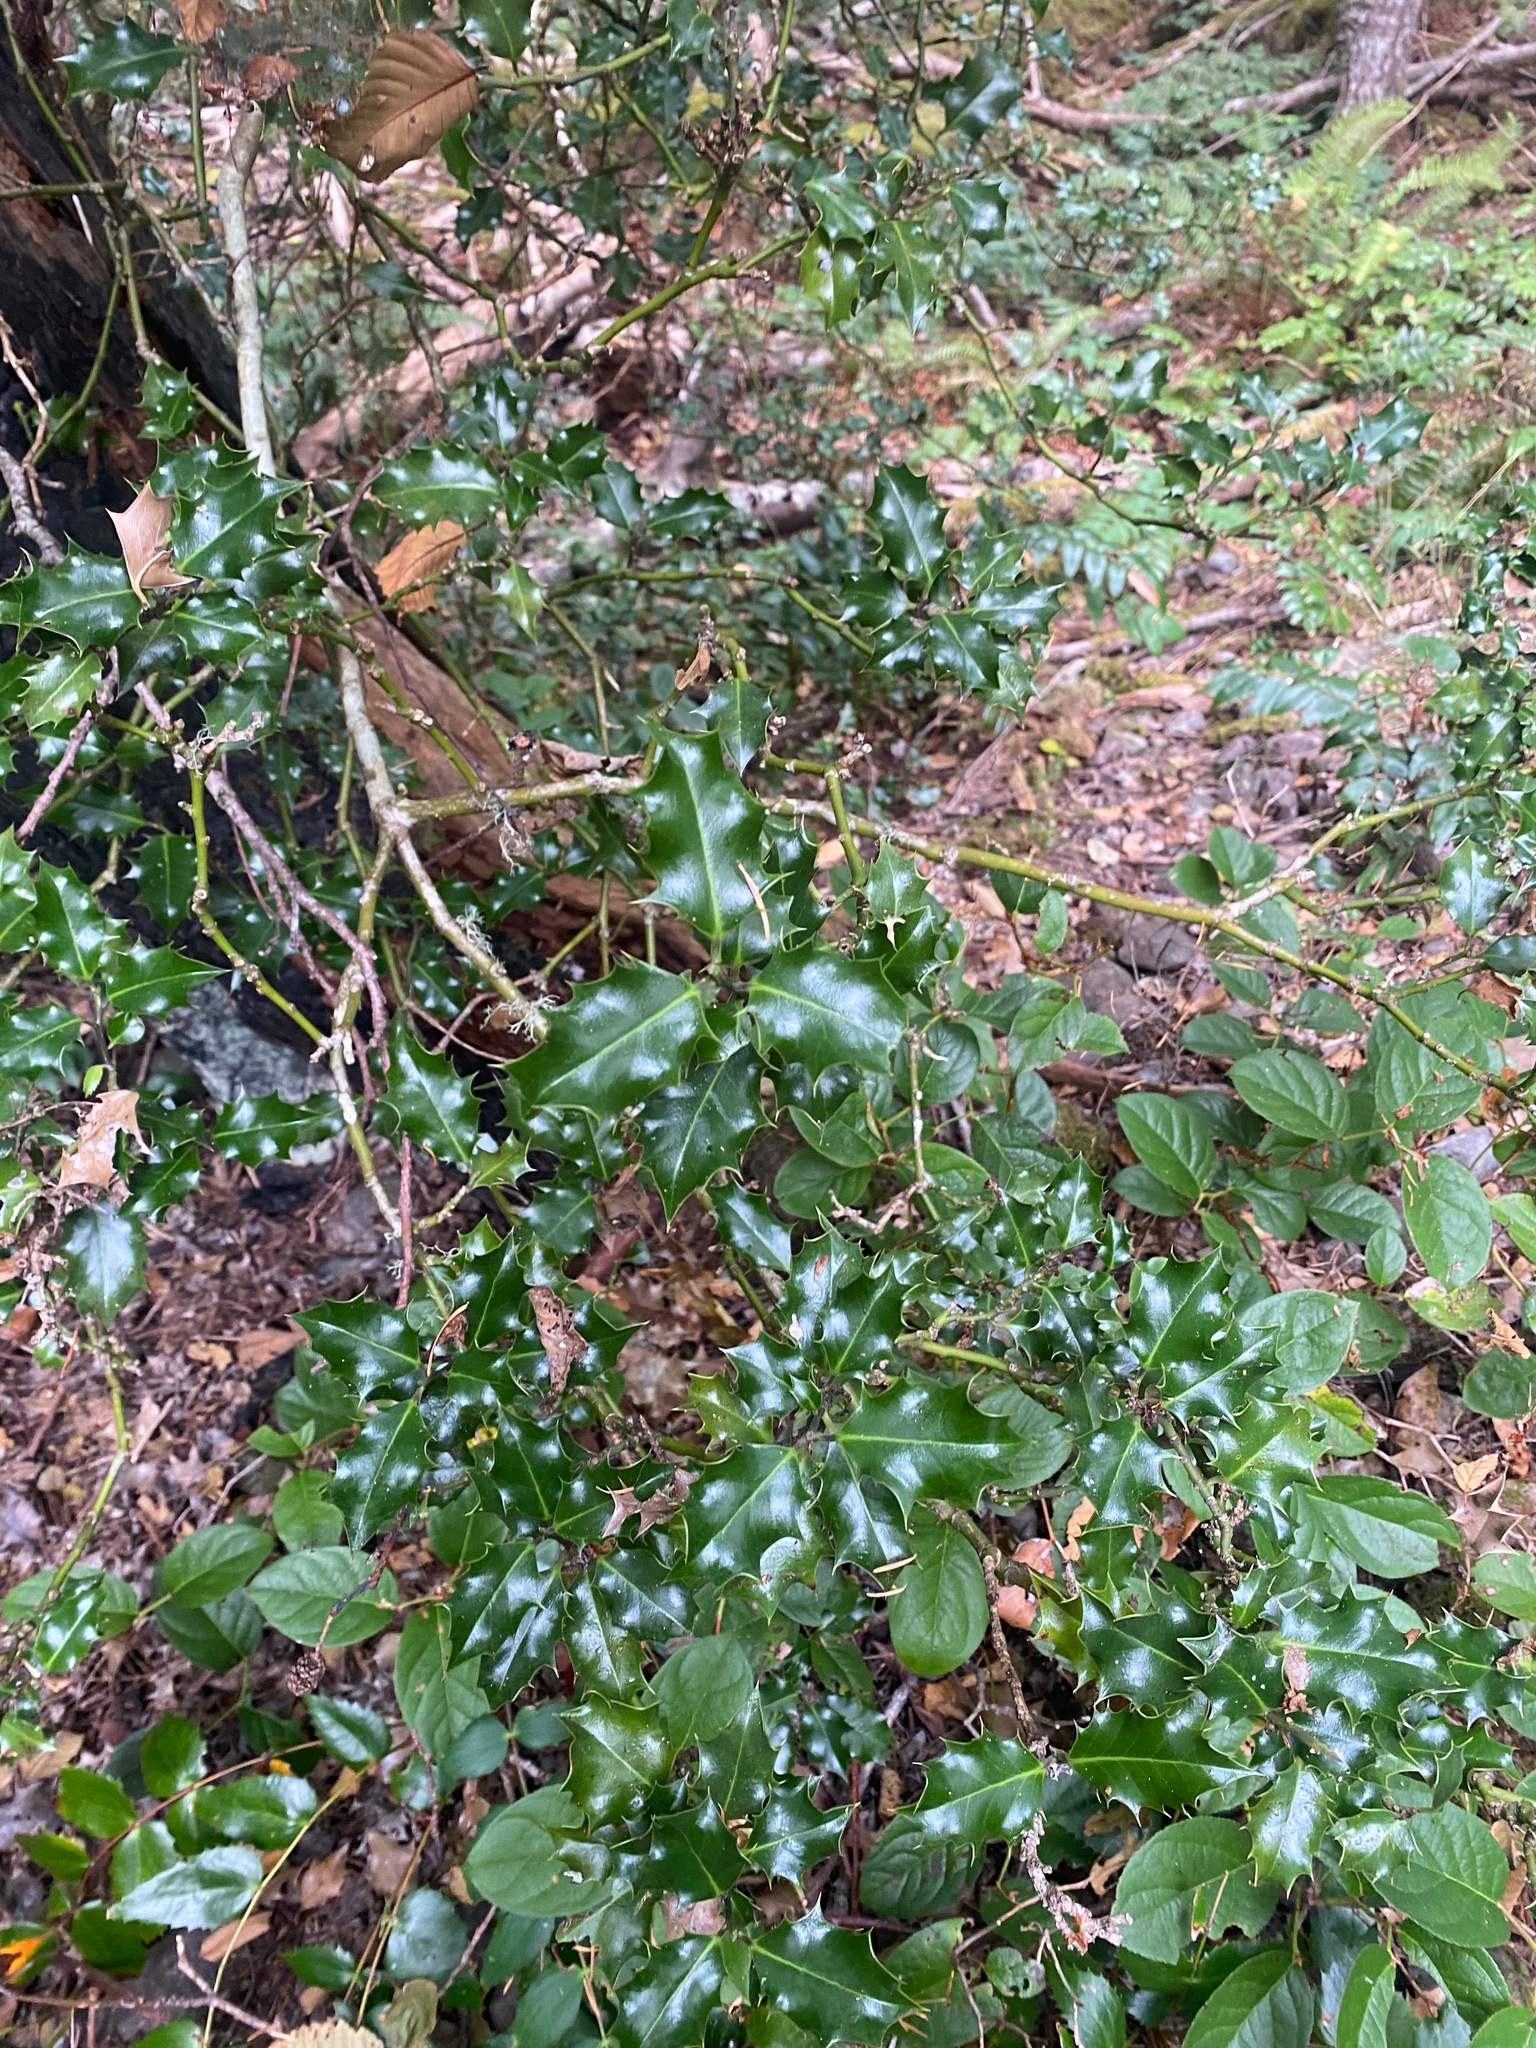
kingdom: Plantae
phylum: Tracheophyta
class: Magnoliopsida
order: Aquifoliales
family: Aquifoliaceae
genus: Ilex
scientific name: Ilex aquifolium
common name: English holly
